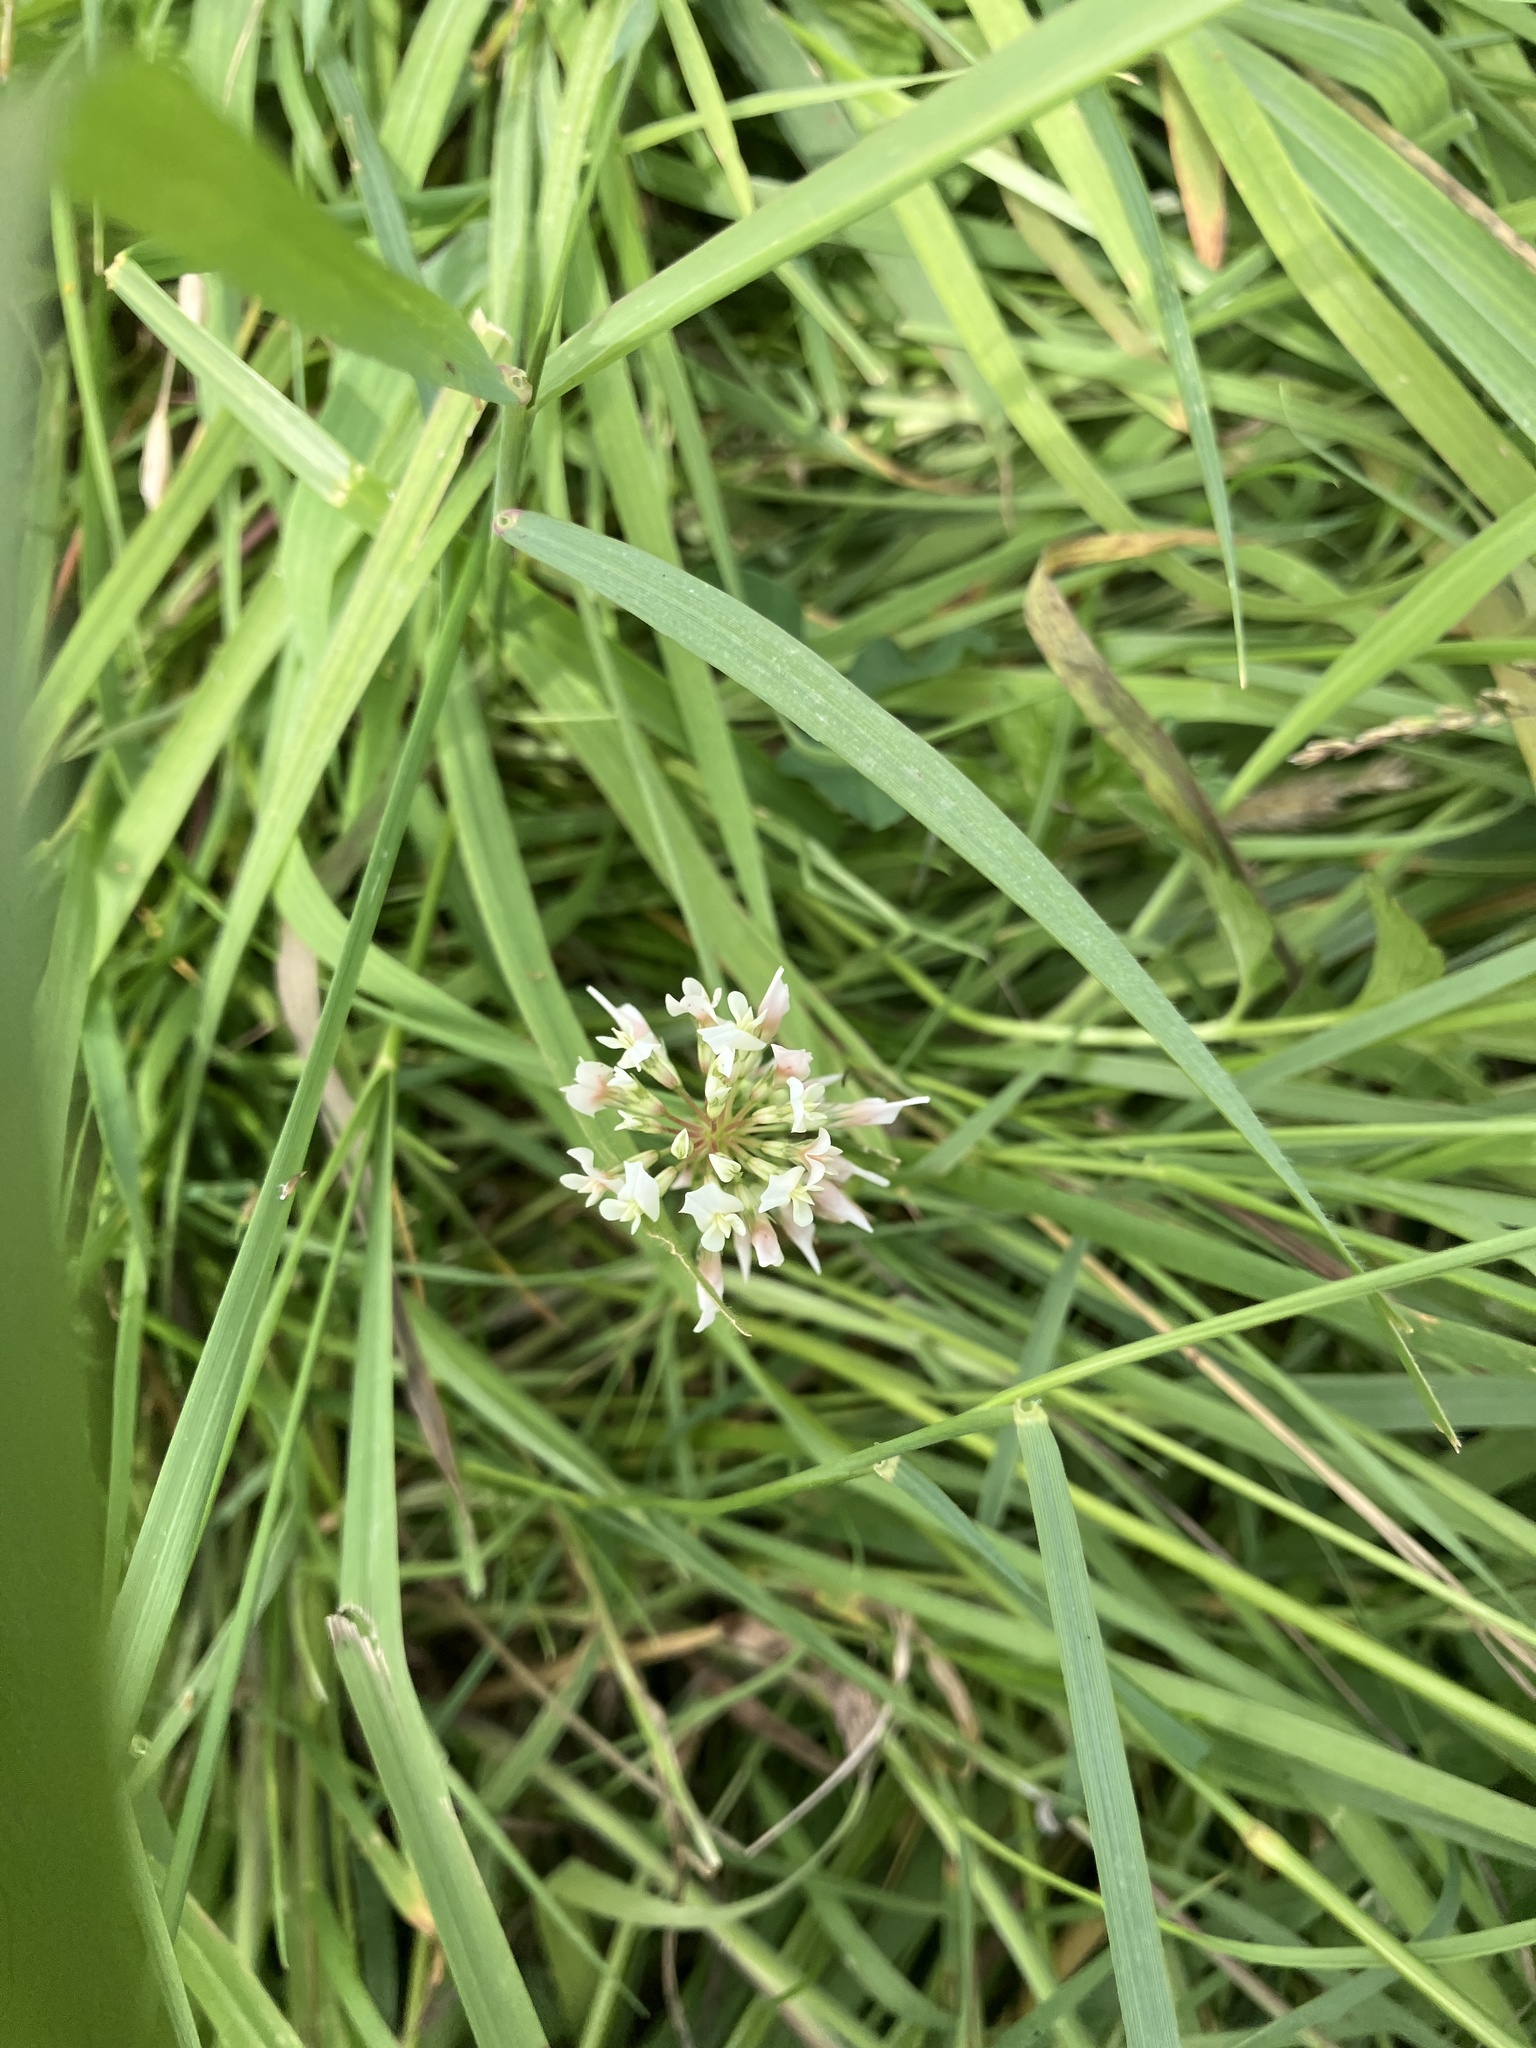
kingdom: Plantae
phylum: Tracheophyta
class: Magnoliopsida
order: Fabales
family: Fabaceae
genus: Trifolium
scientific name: Trifolium repens
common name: White clover
